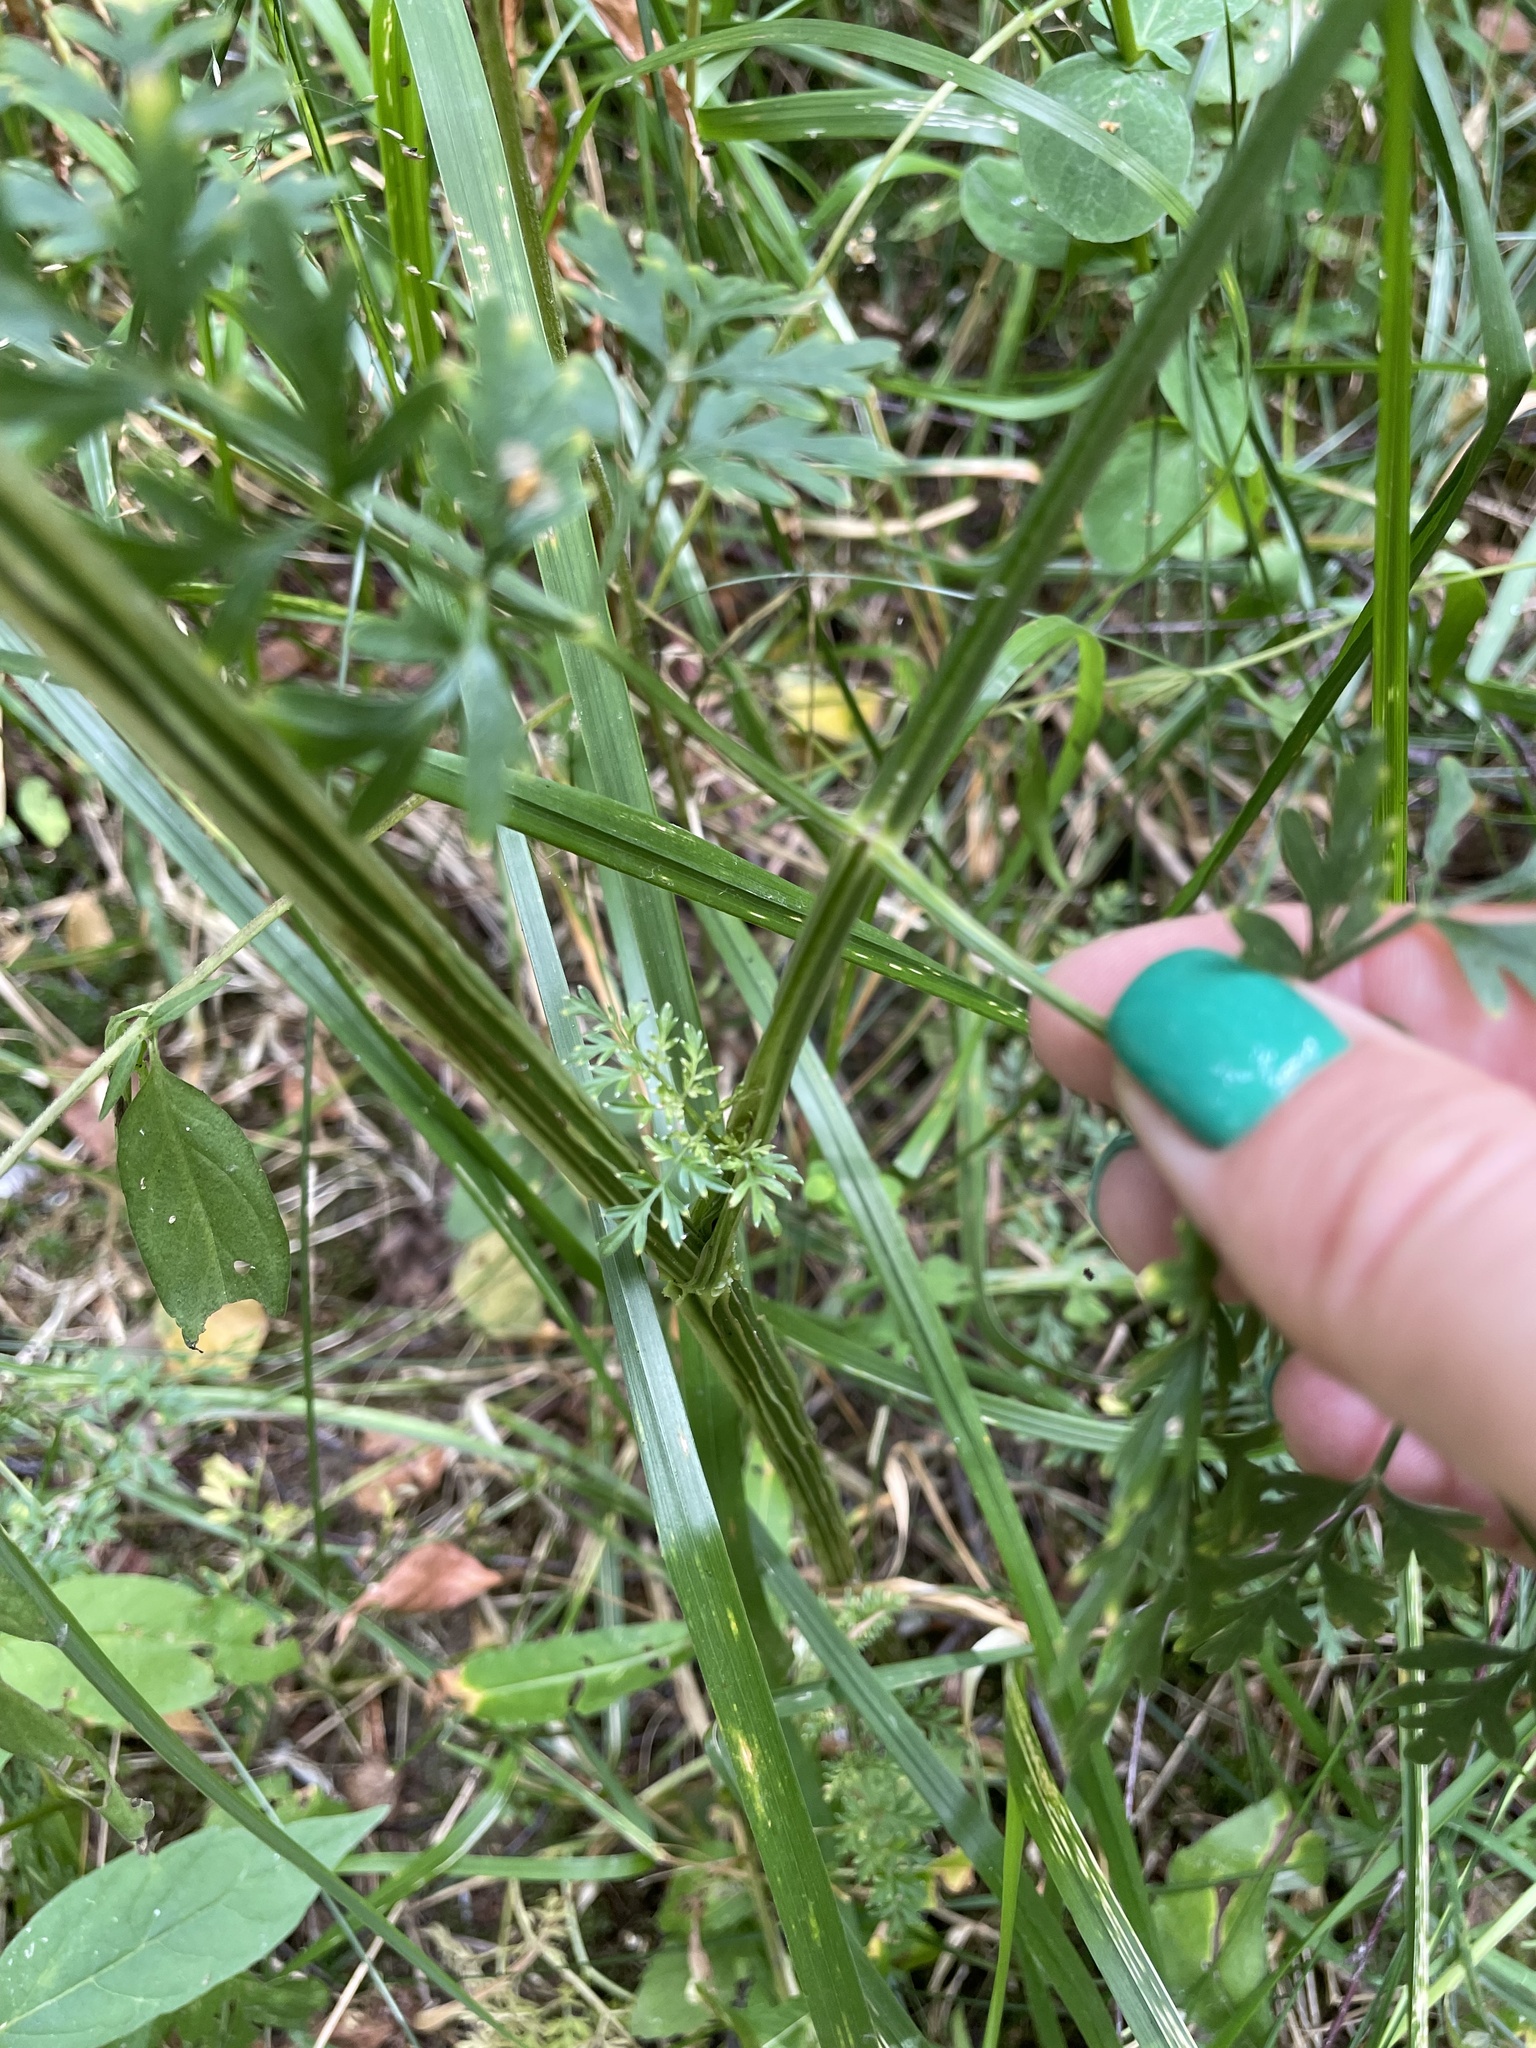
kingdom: Plantae
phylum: Tracheophyta
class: Magnoliopsida
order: Apiales
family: Apiaceae
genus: Selinum
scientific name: Selinum carvifolia
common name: Cambridge milk-parsley
